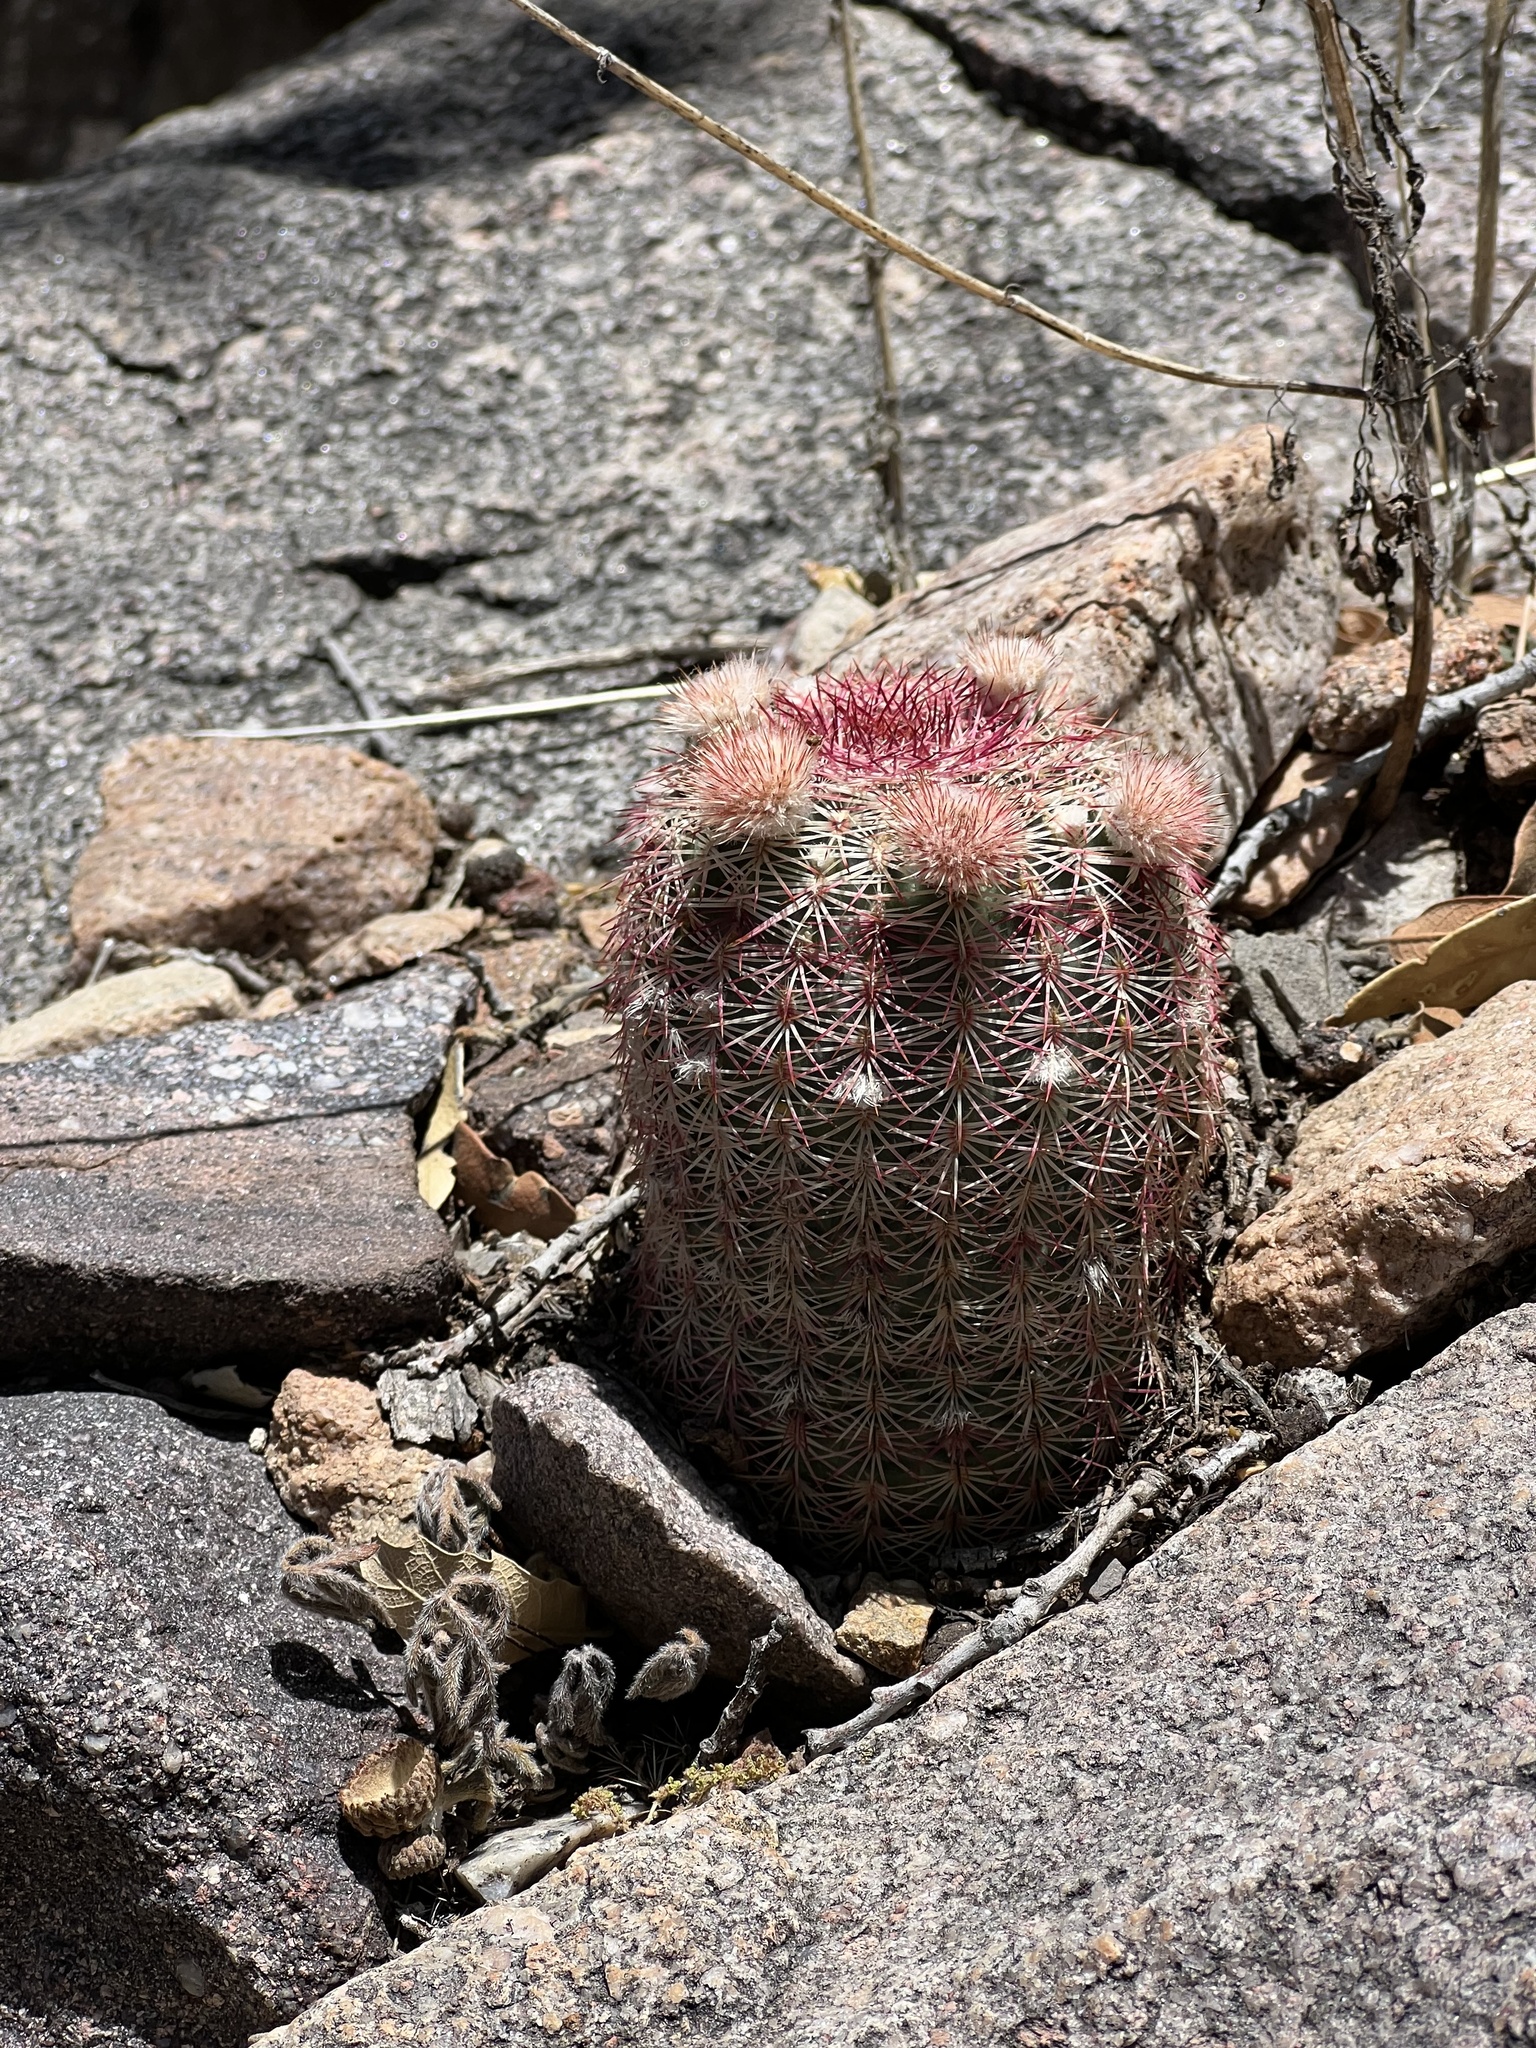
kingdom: Plantae
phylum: Tracheophyta
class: Magnoliopsida
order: Caryophyllales
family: Cactaceae
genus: Echinocereus
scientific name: Echinocereus rigidissimus
